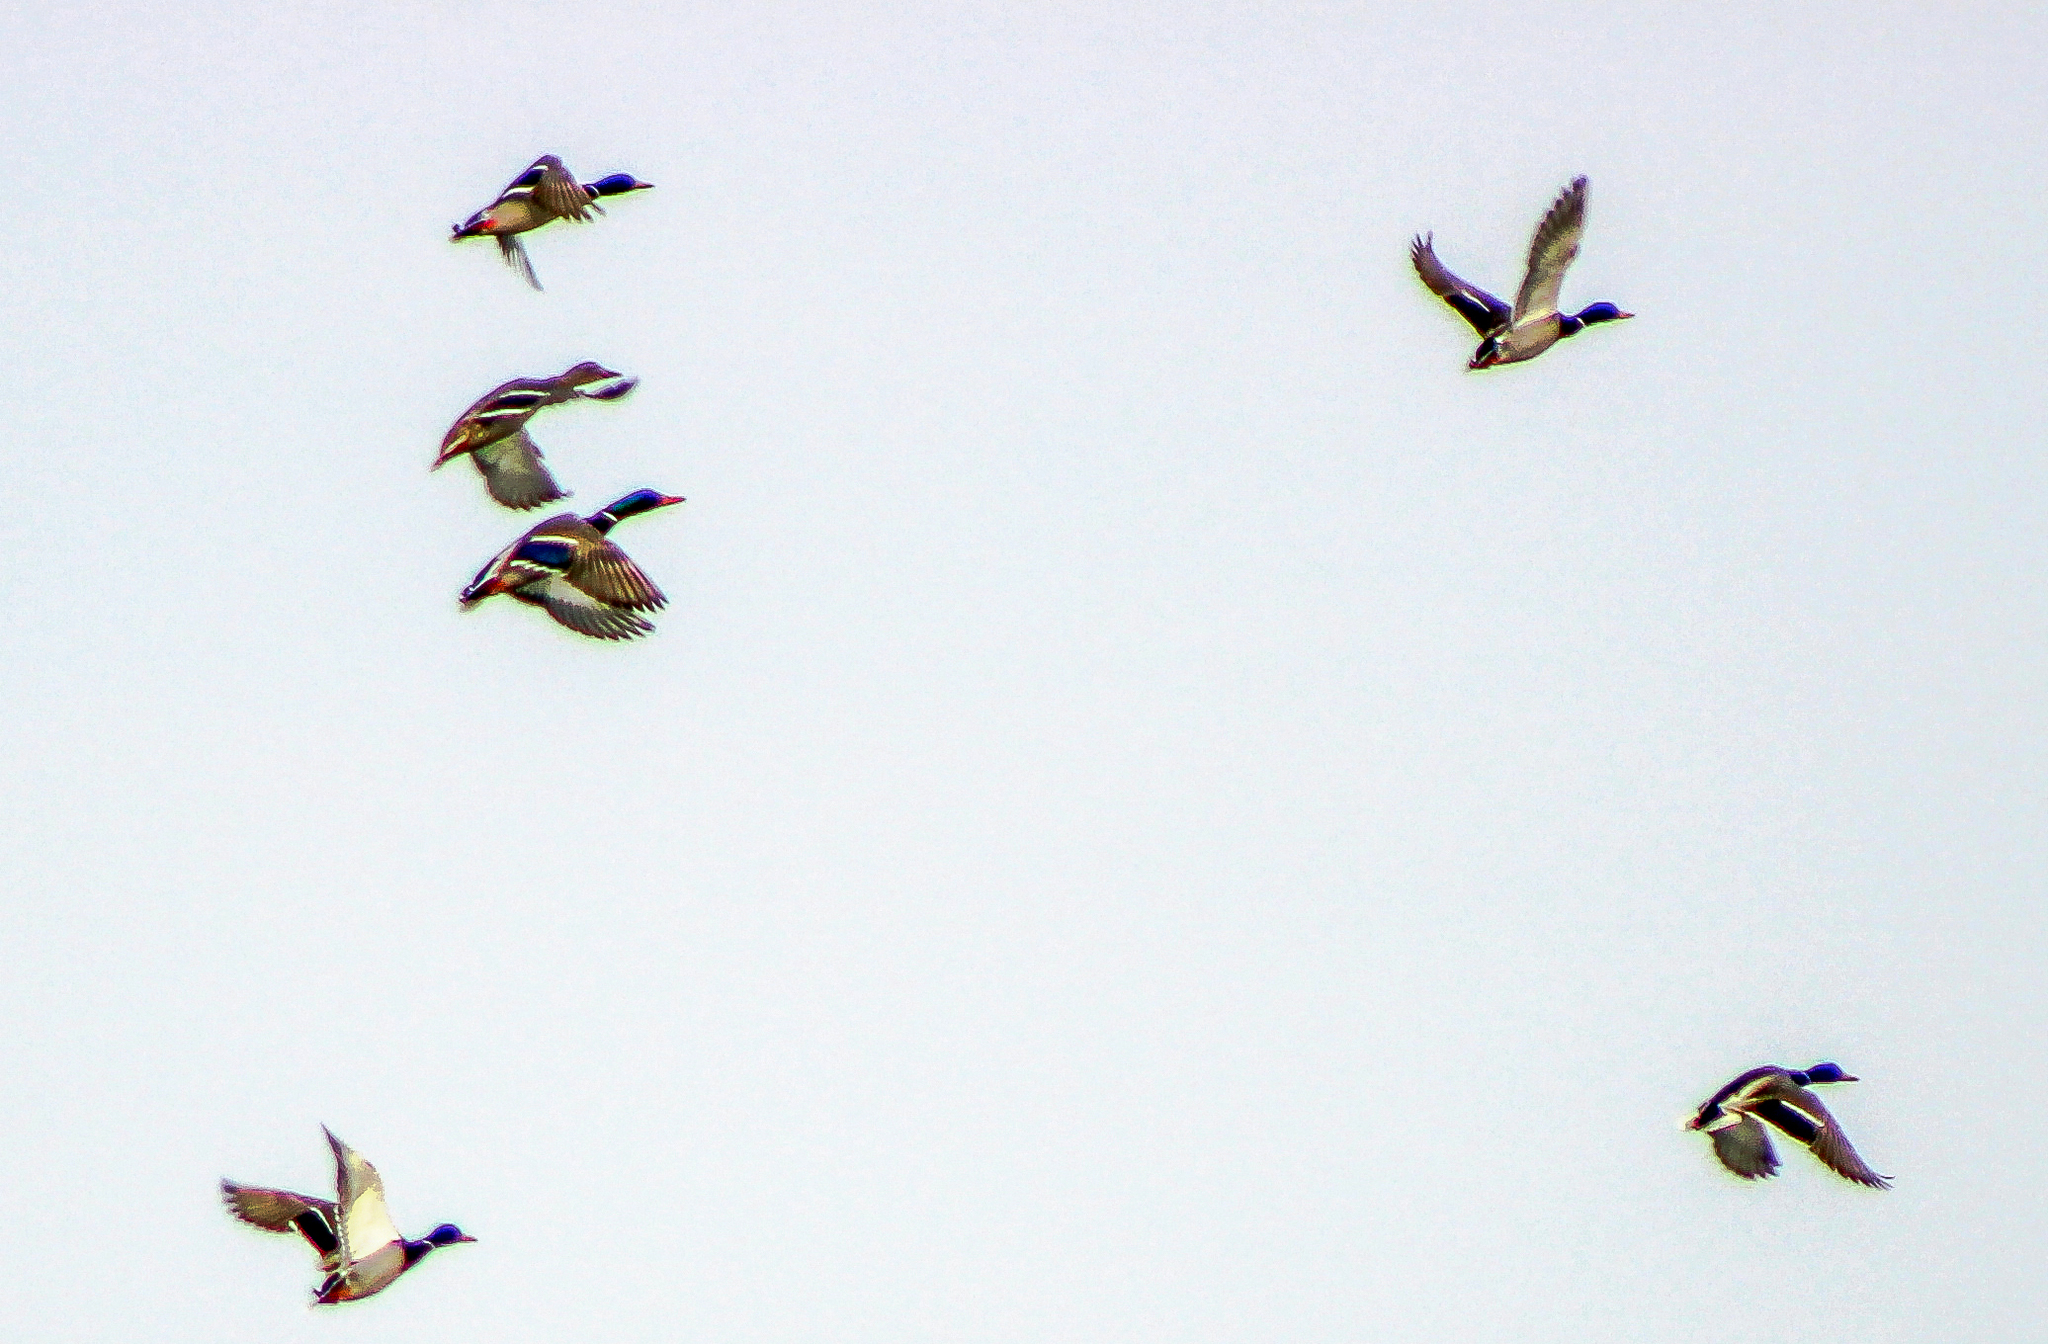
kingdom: Animalia
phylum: Chordata
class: Aves
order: Anseriformes
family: Anatidae
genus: Anas
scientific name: Anas platyrhynchos
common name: Mallard
